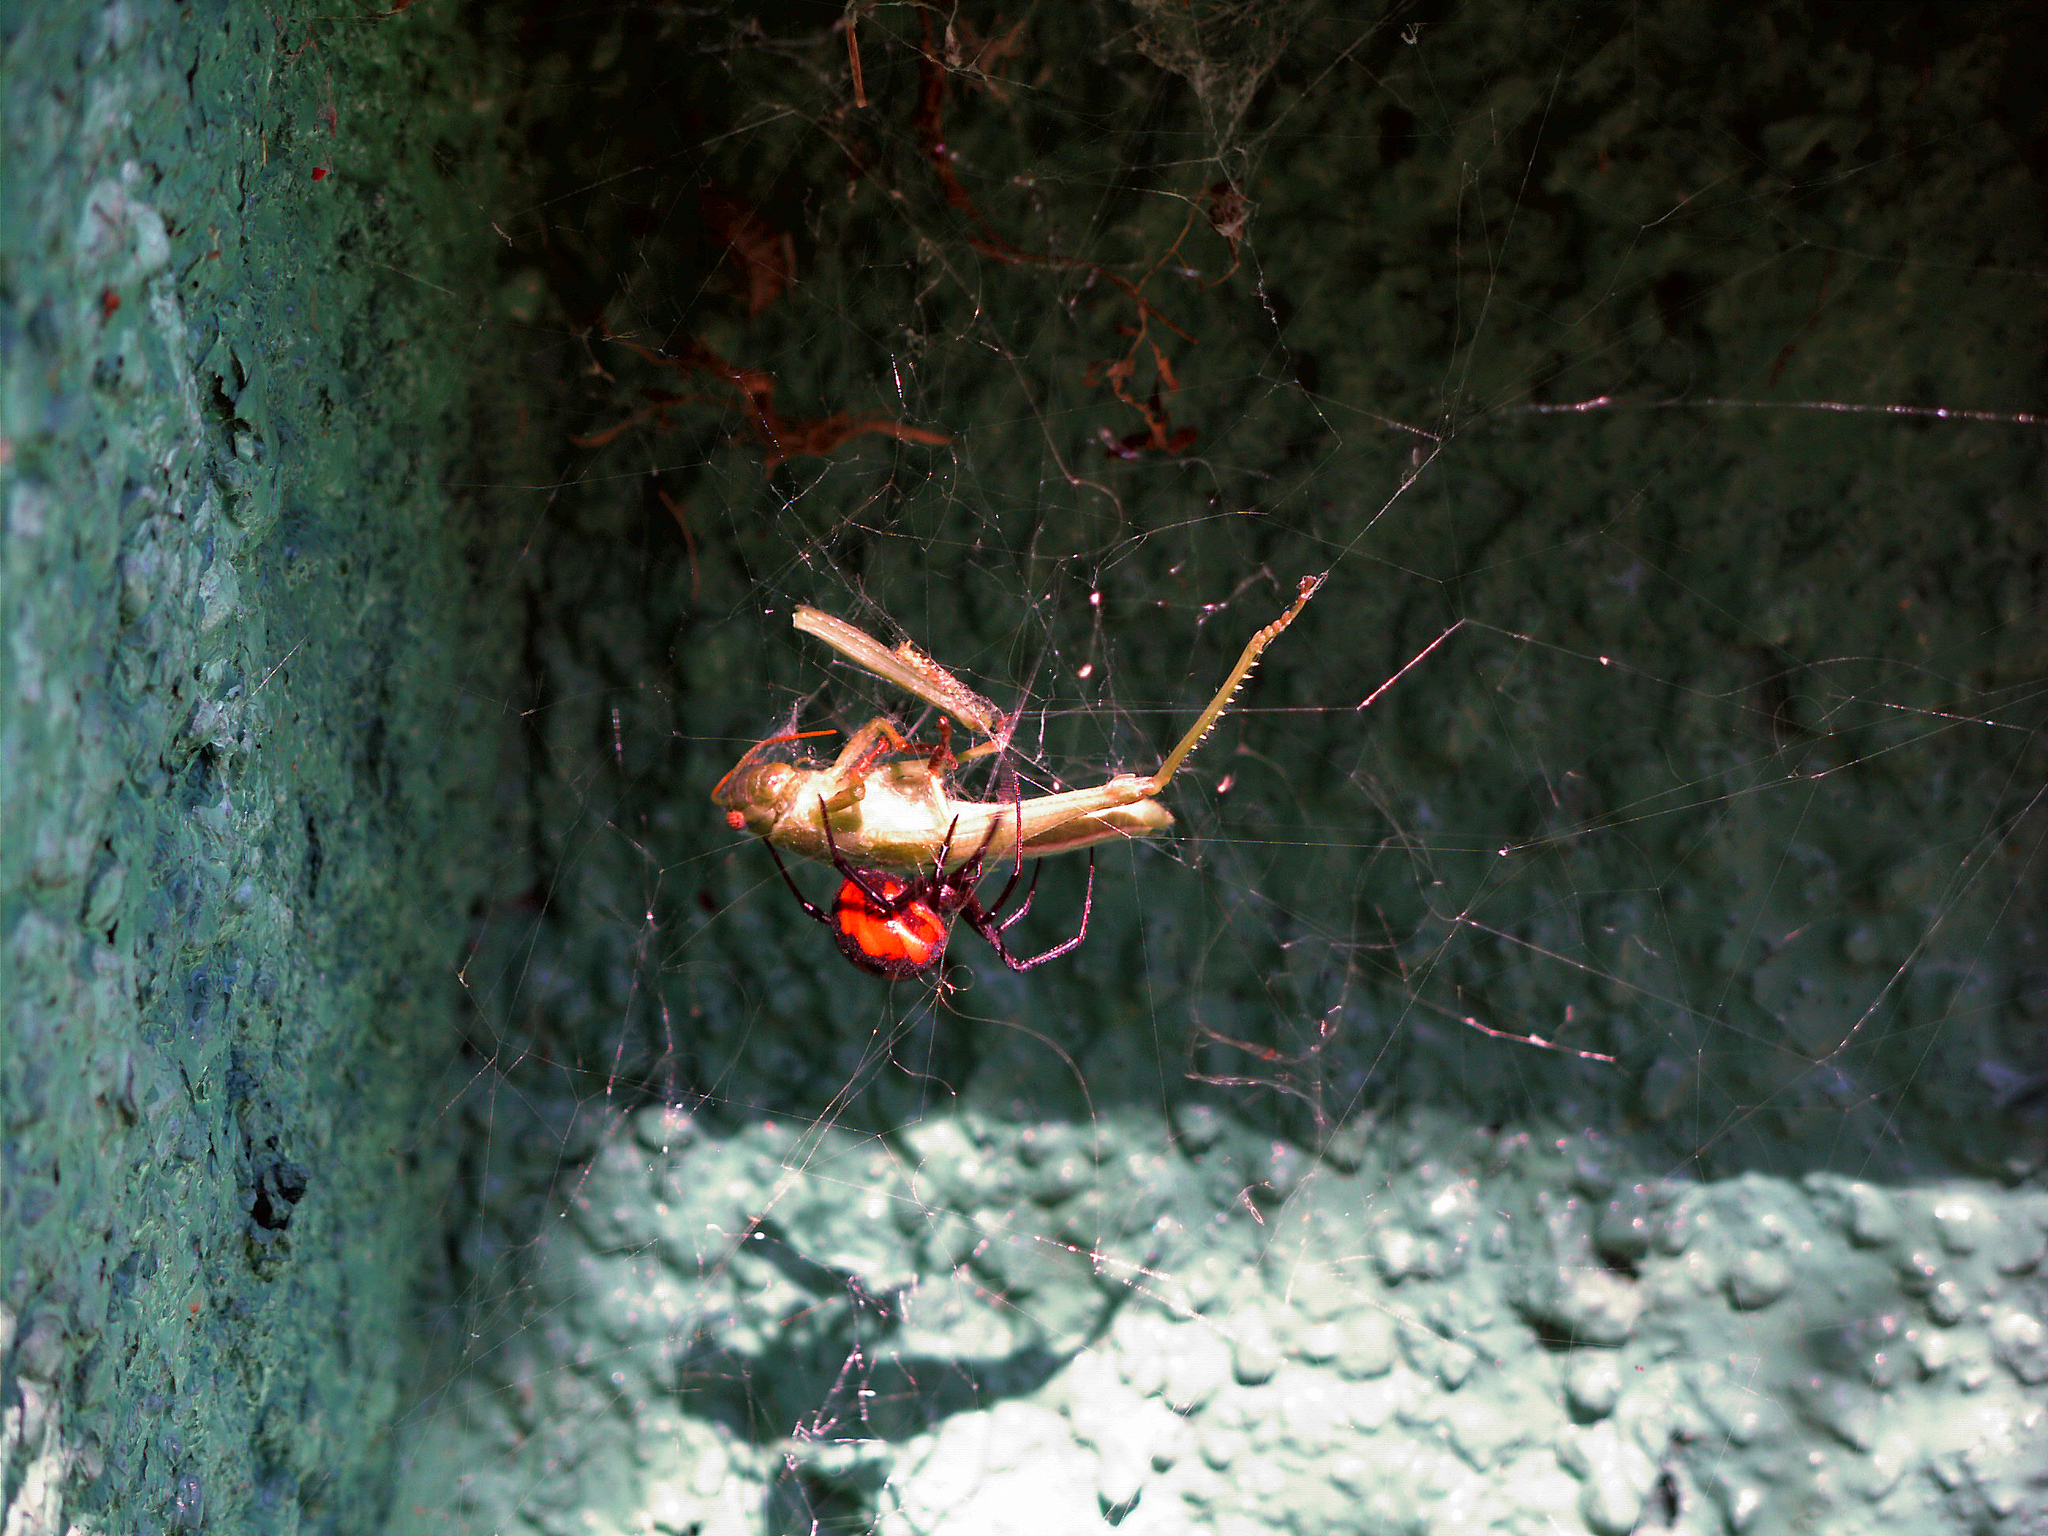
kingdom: Animalia
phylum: Arthropoda
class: Arachnida
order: Araneae
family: Theridiidae
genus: Latrodectus
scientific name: Latrodectus tredecimguttatus
